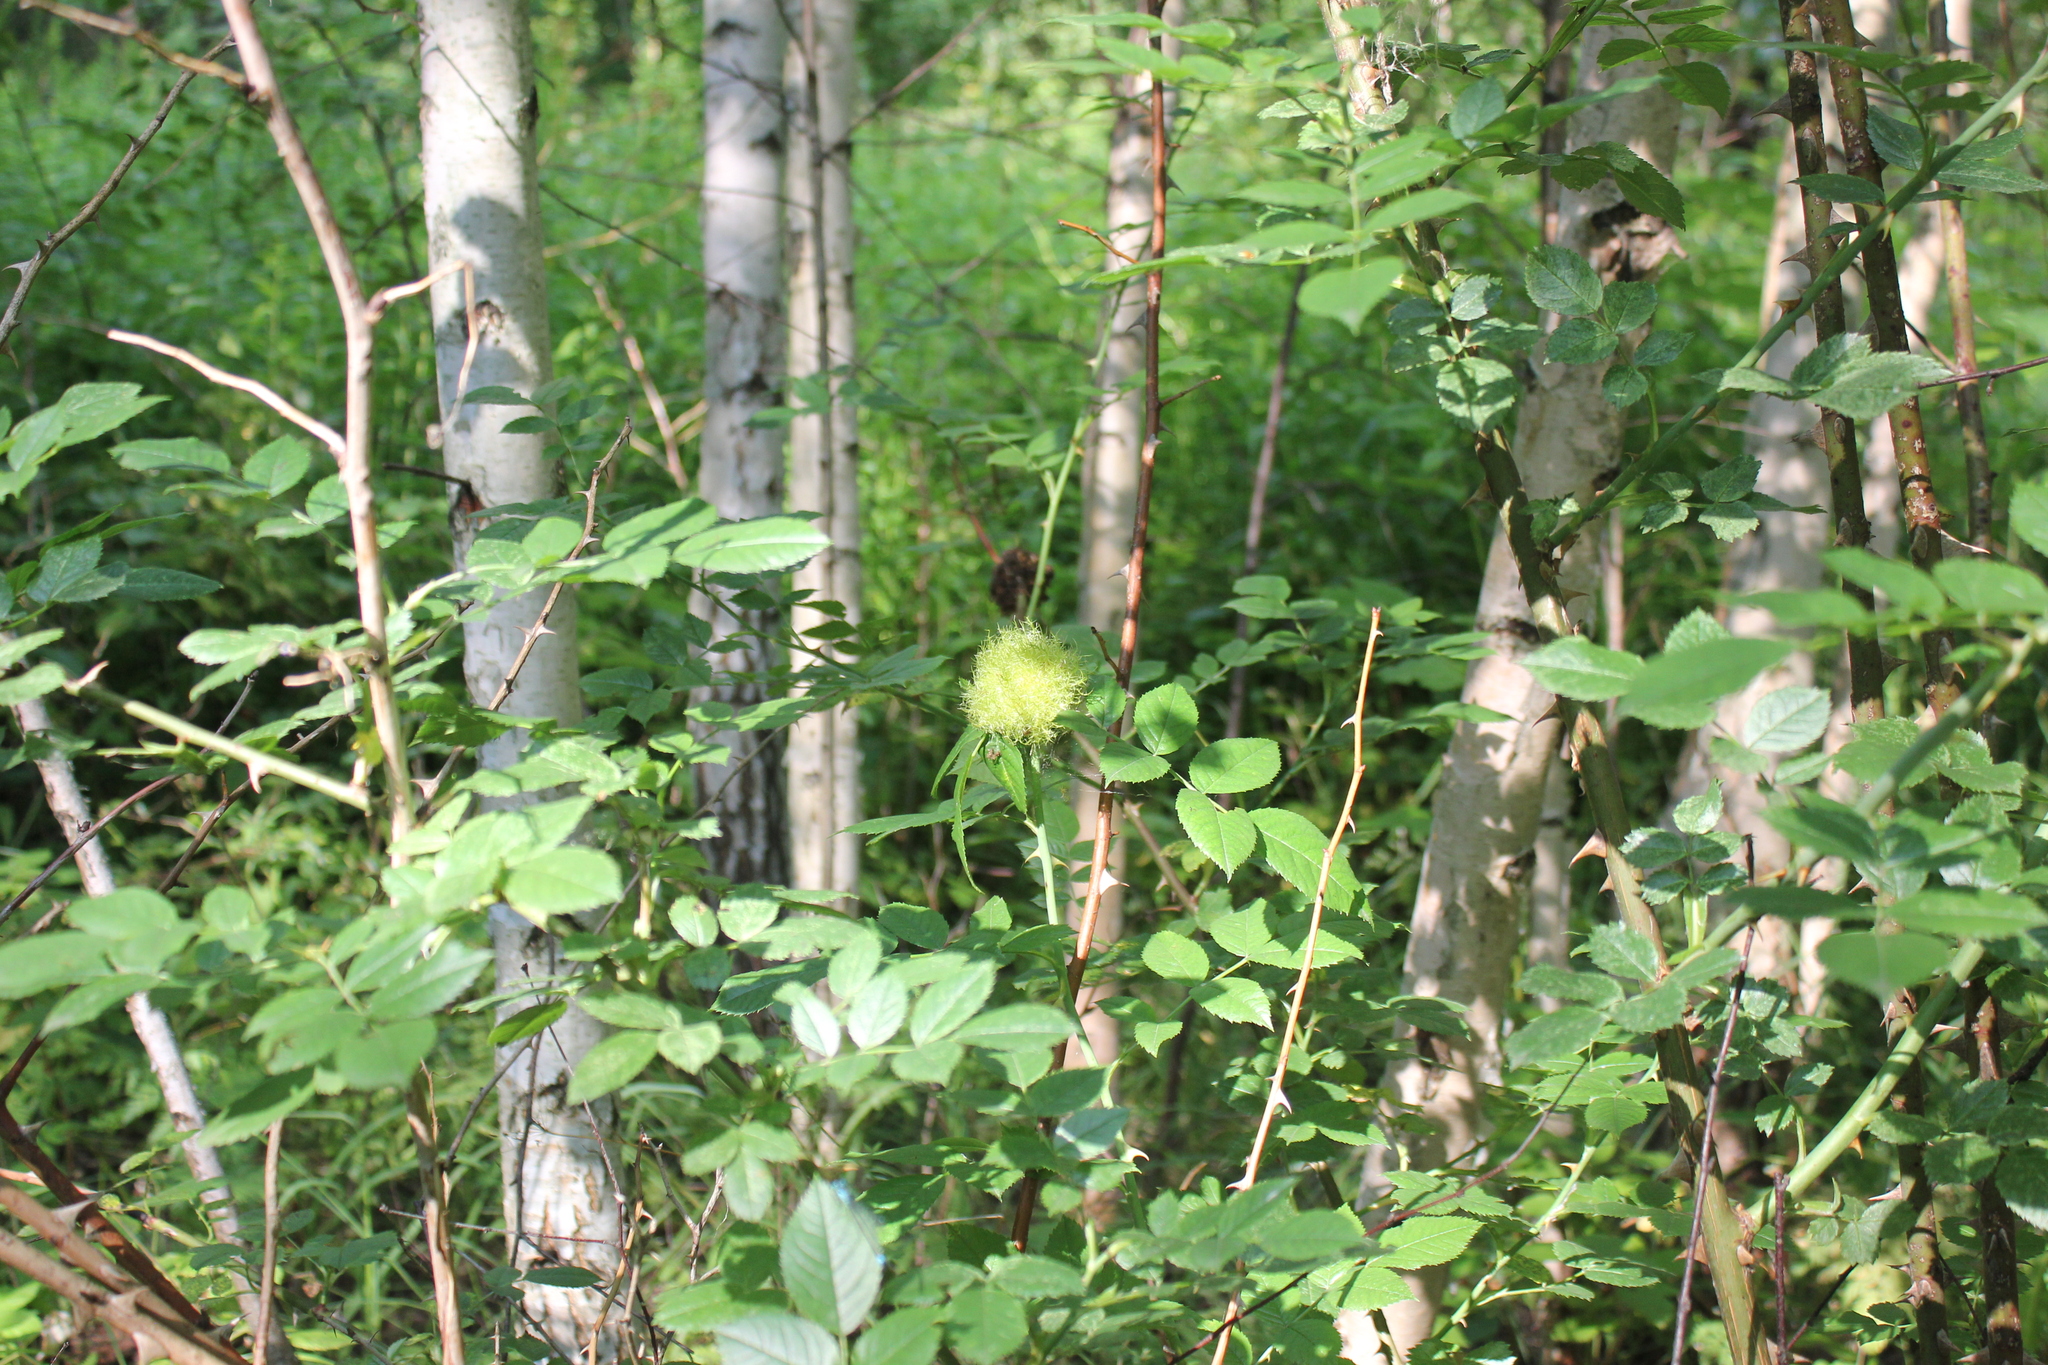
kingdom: Animalia
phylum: Arthropoda
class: Insecta
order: Hymenoptera
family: Cynipidae
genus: Diplolepis
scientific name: Diplolepis rosae
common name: Bedeguar gall
